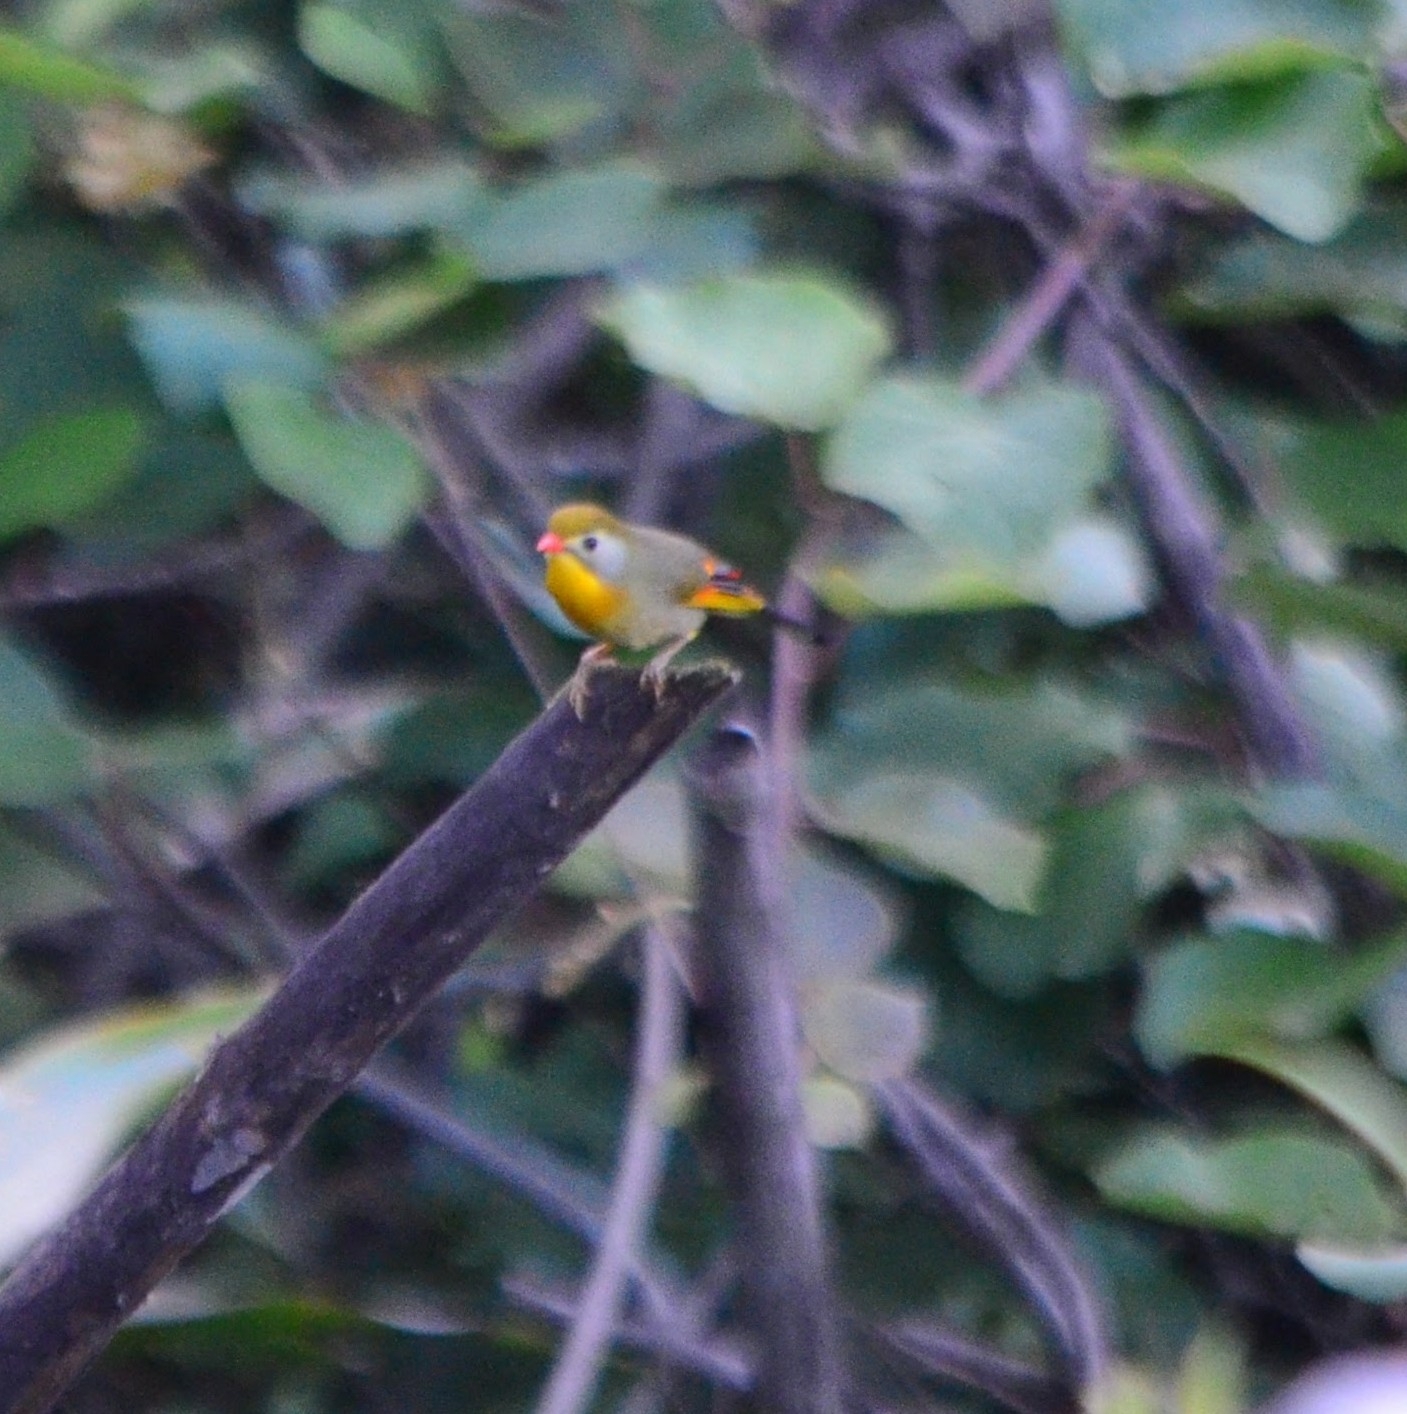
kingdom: Animalia
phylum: Chordata
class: Aves
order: Passeriformes
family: Leiothrichidae
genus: Leiothrix
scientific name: Leiothrix lutea
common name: Red-billed leiothrix
